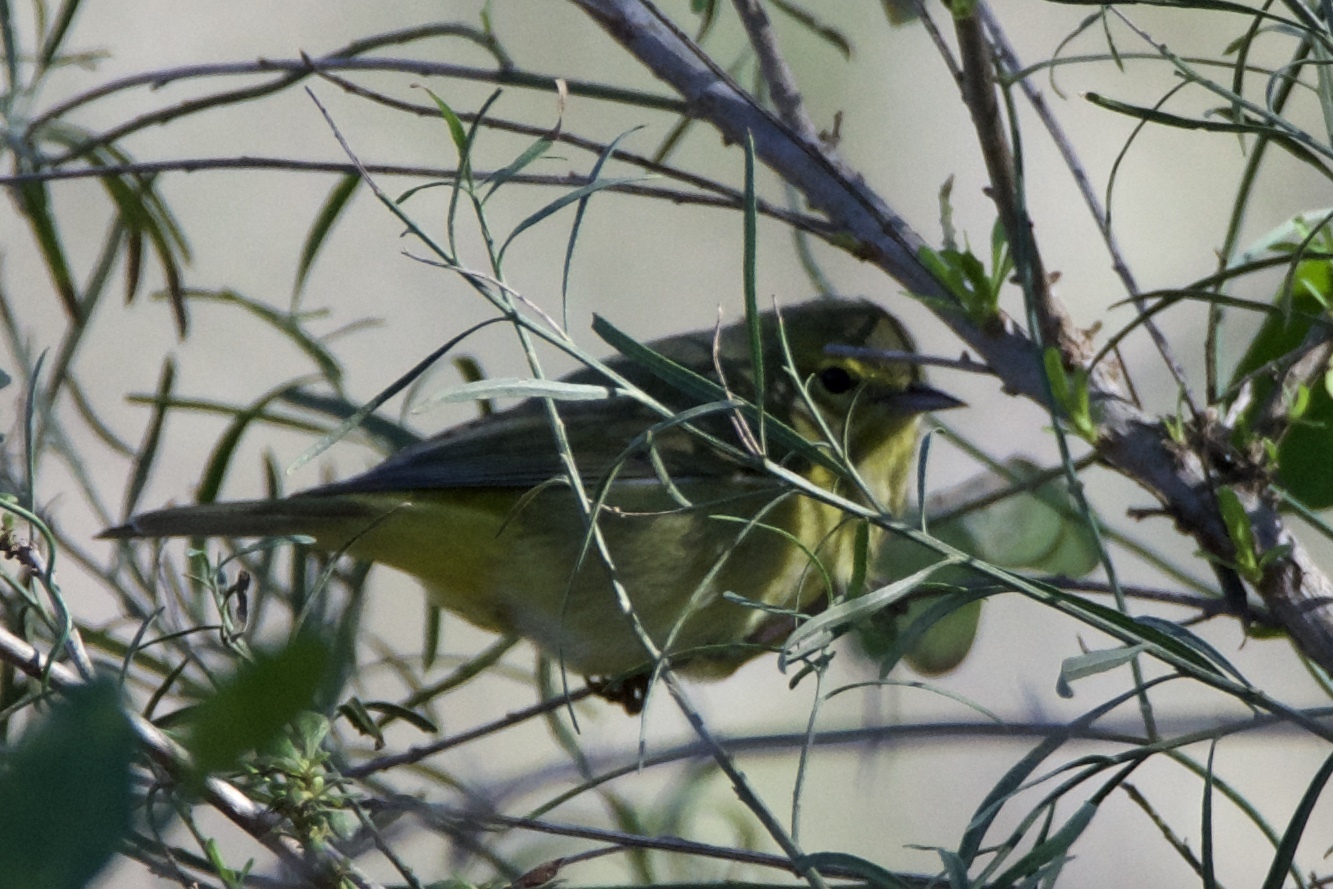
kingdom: Animalia
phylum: Chordata
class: Aves
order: Passeriformes
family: Parulidae
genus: Leiothlypis
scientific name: Leiothlypis celata
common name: Orange-crowned warbler
